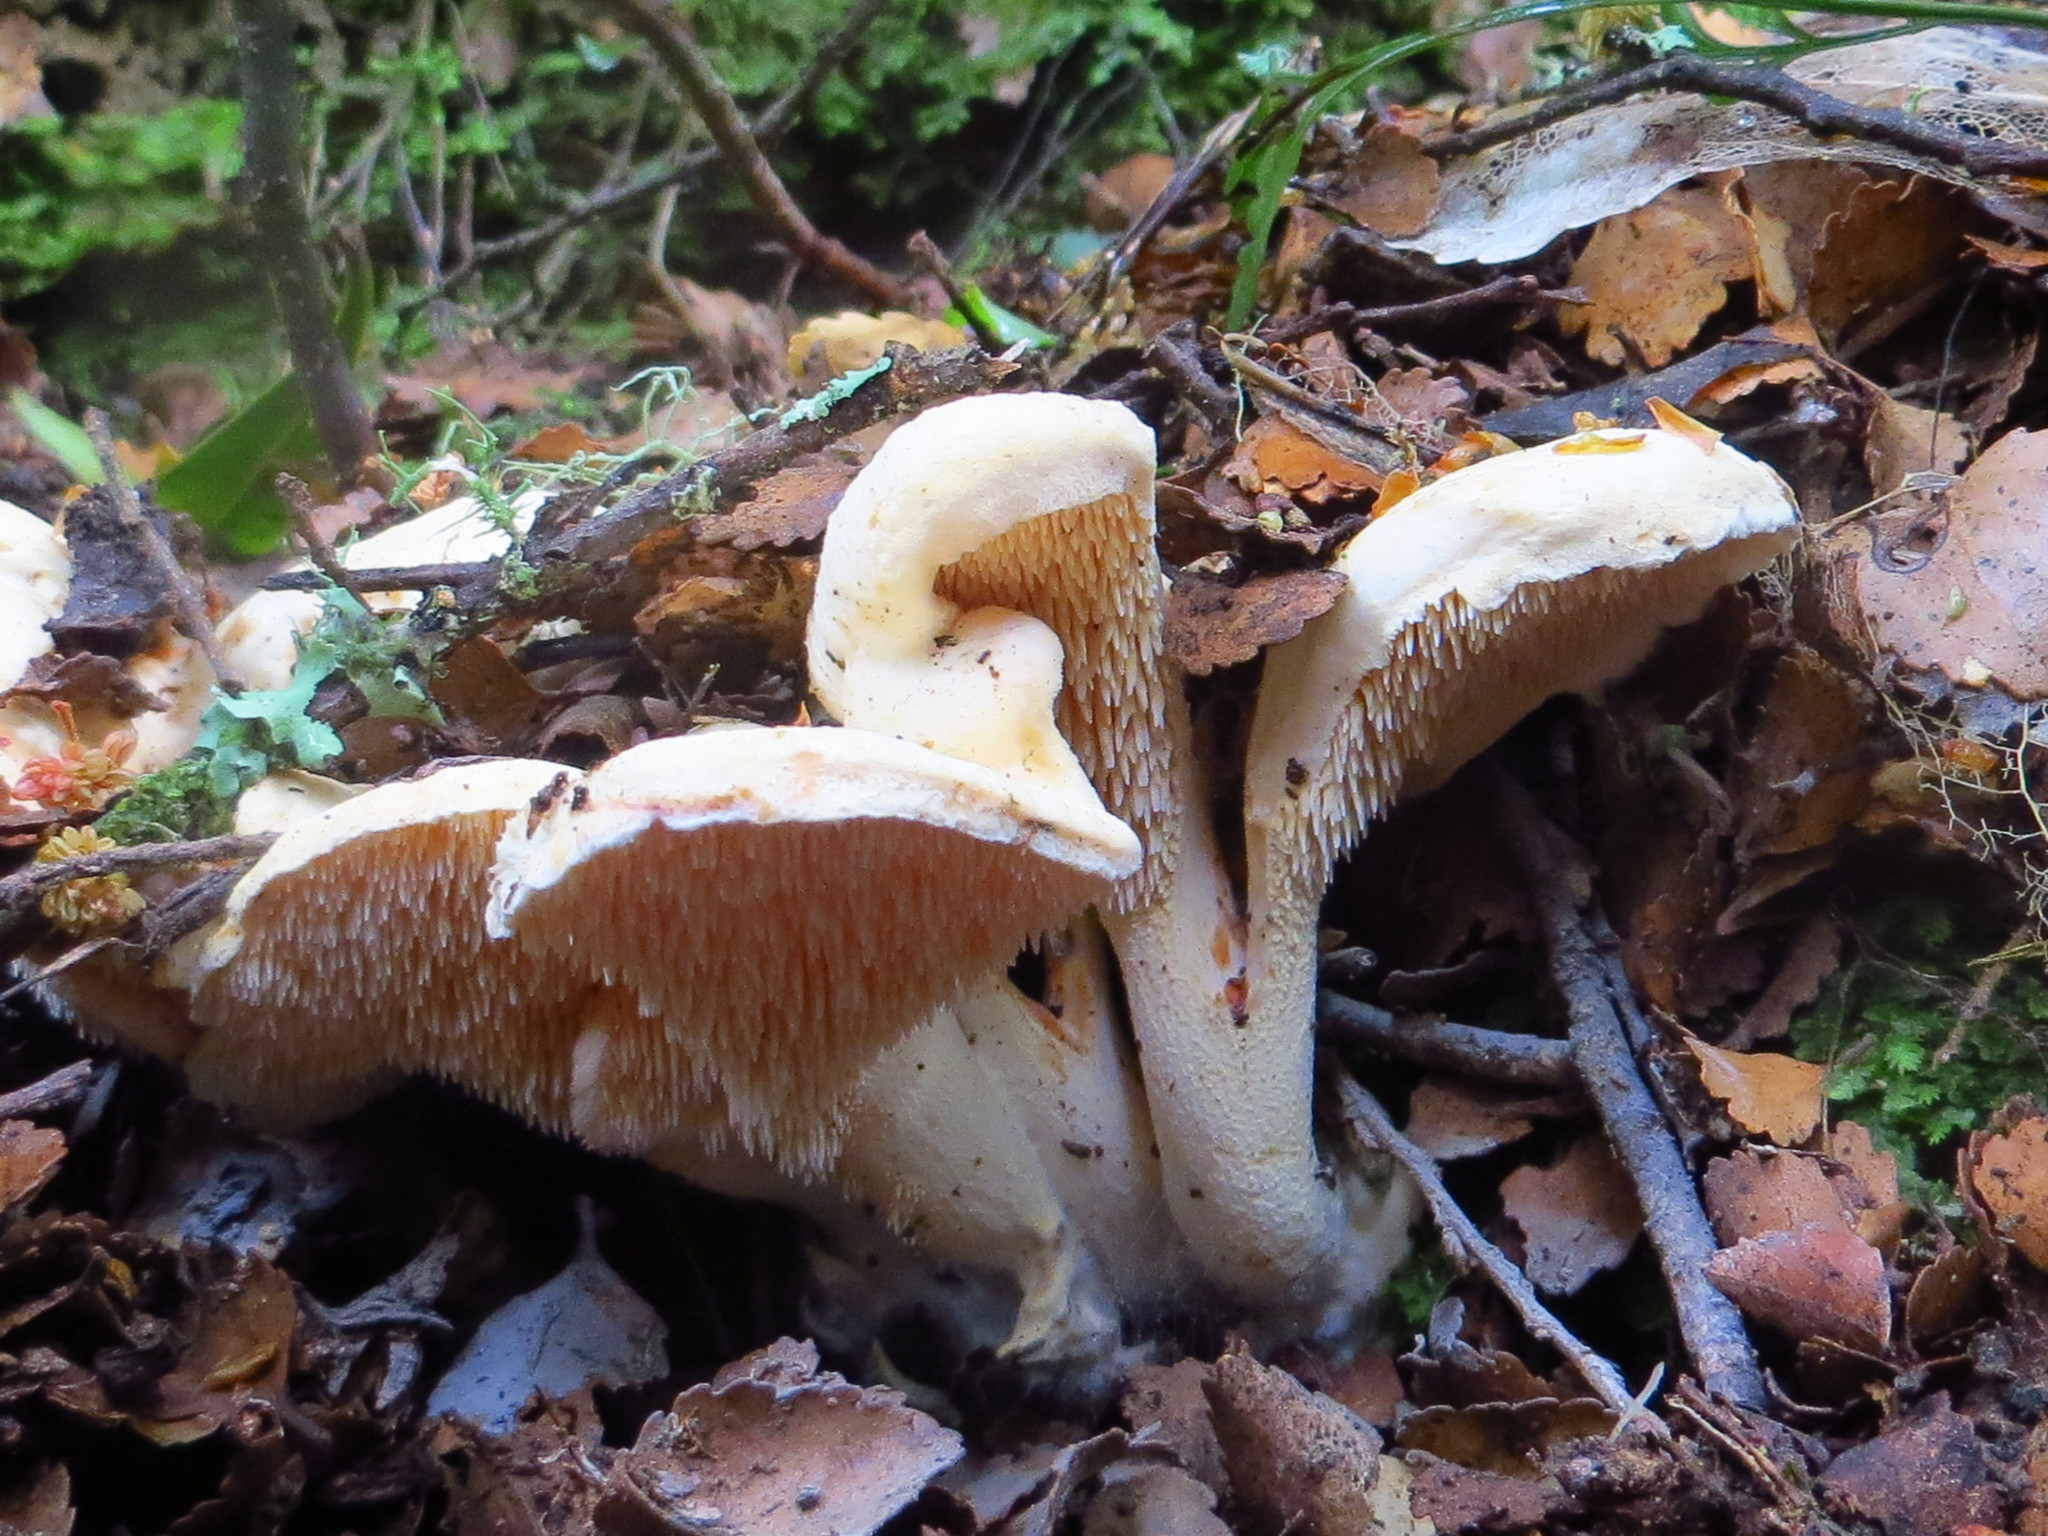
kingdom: Fungi
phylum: Basidiomycota
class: Agaricomycetes
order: Cantharellales
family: Hydnaceae
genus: Hydnum
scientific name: Hydnum ambustum
